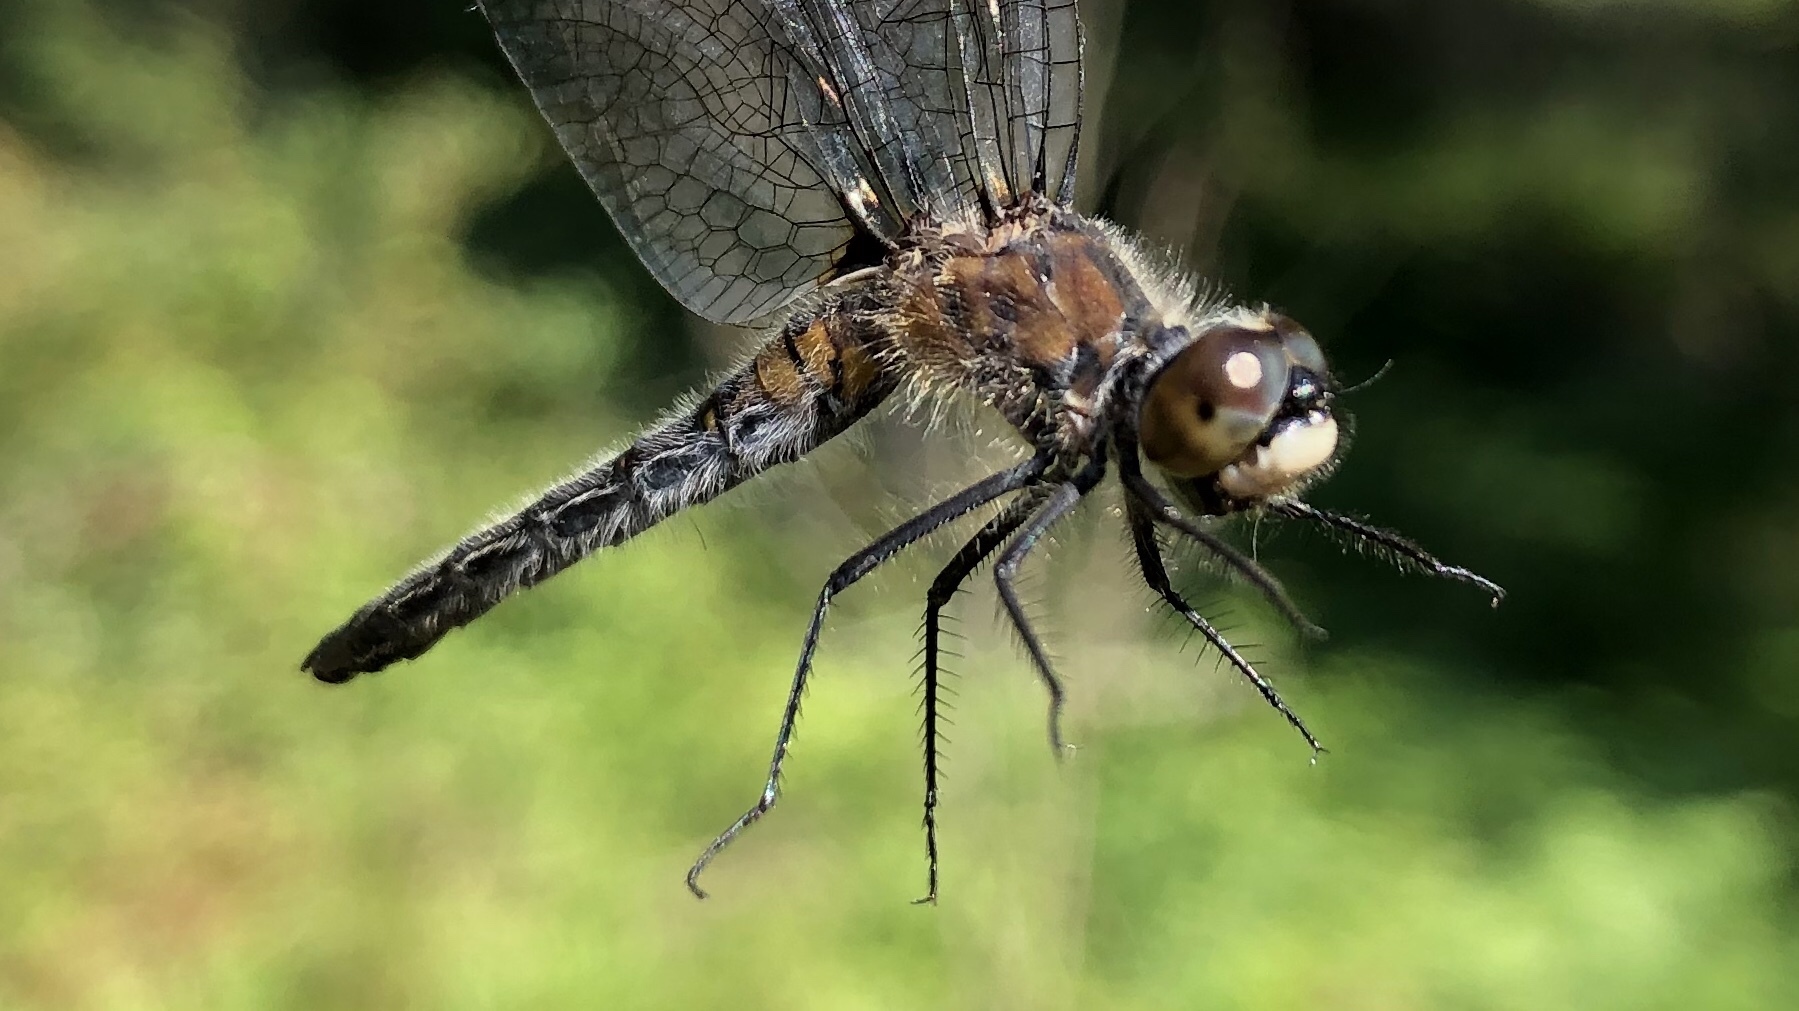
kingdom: Animalia
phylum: Arthropoda
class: Insecta
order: Odonata
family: Libellulidae
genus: Leucorrhinia
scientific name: Leucorrhinia frigida
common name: Frosted whiteface
